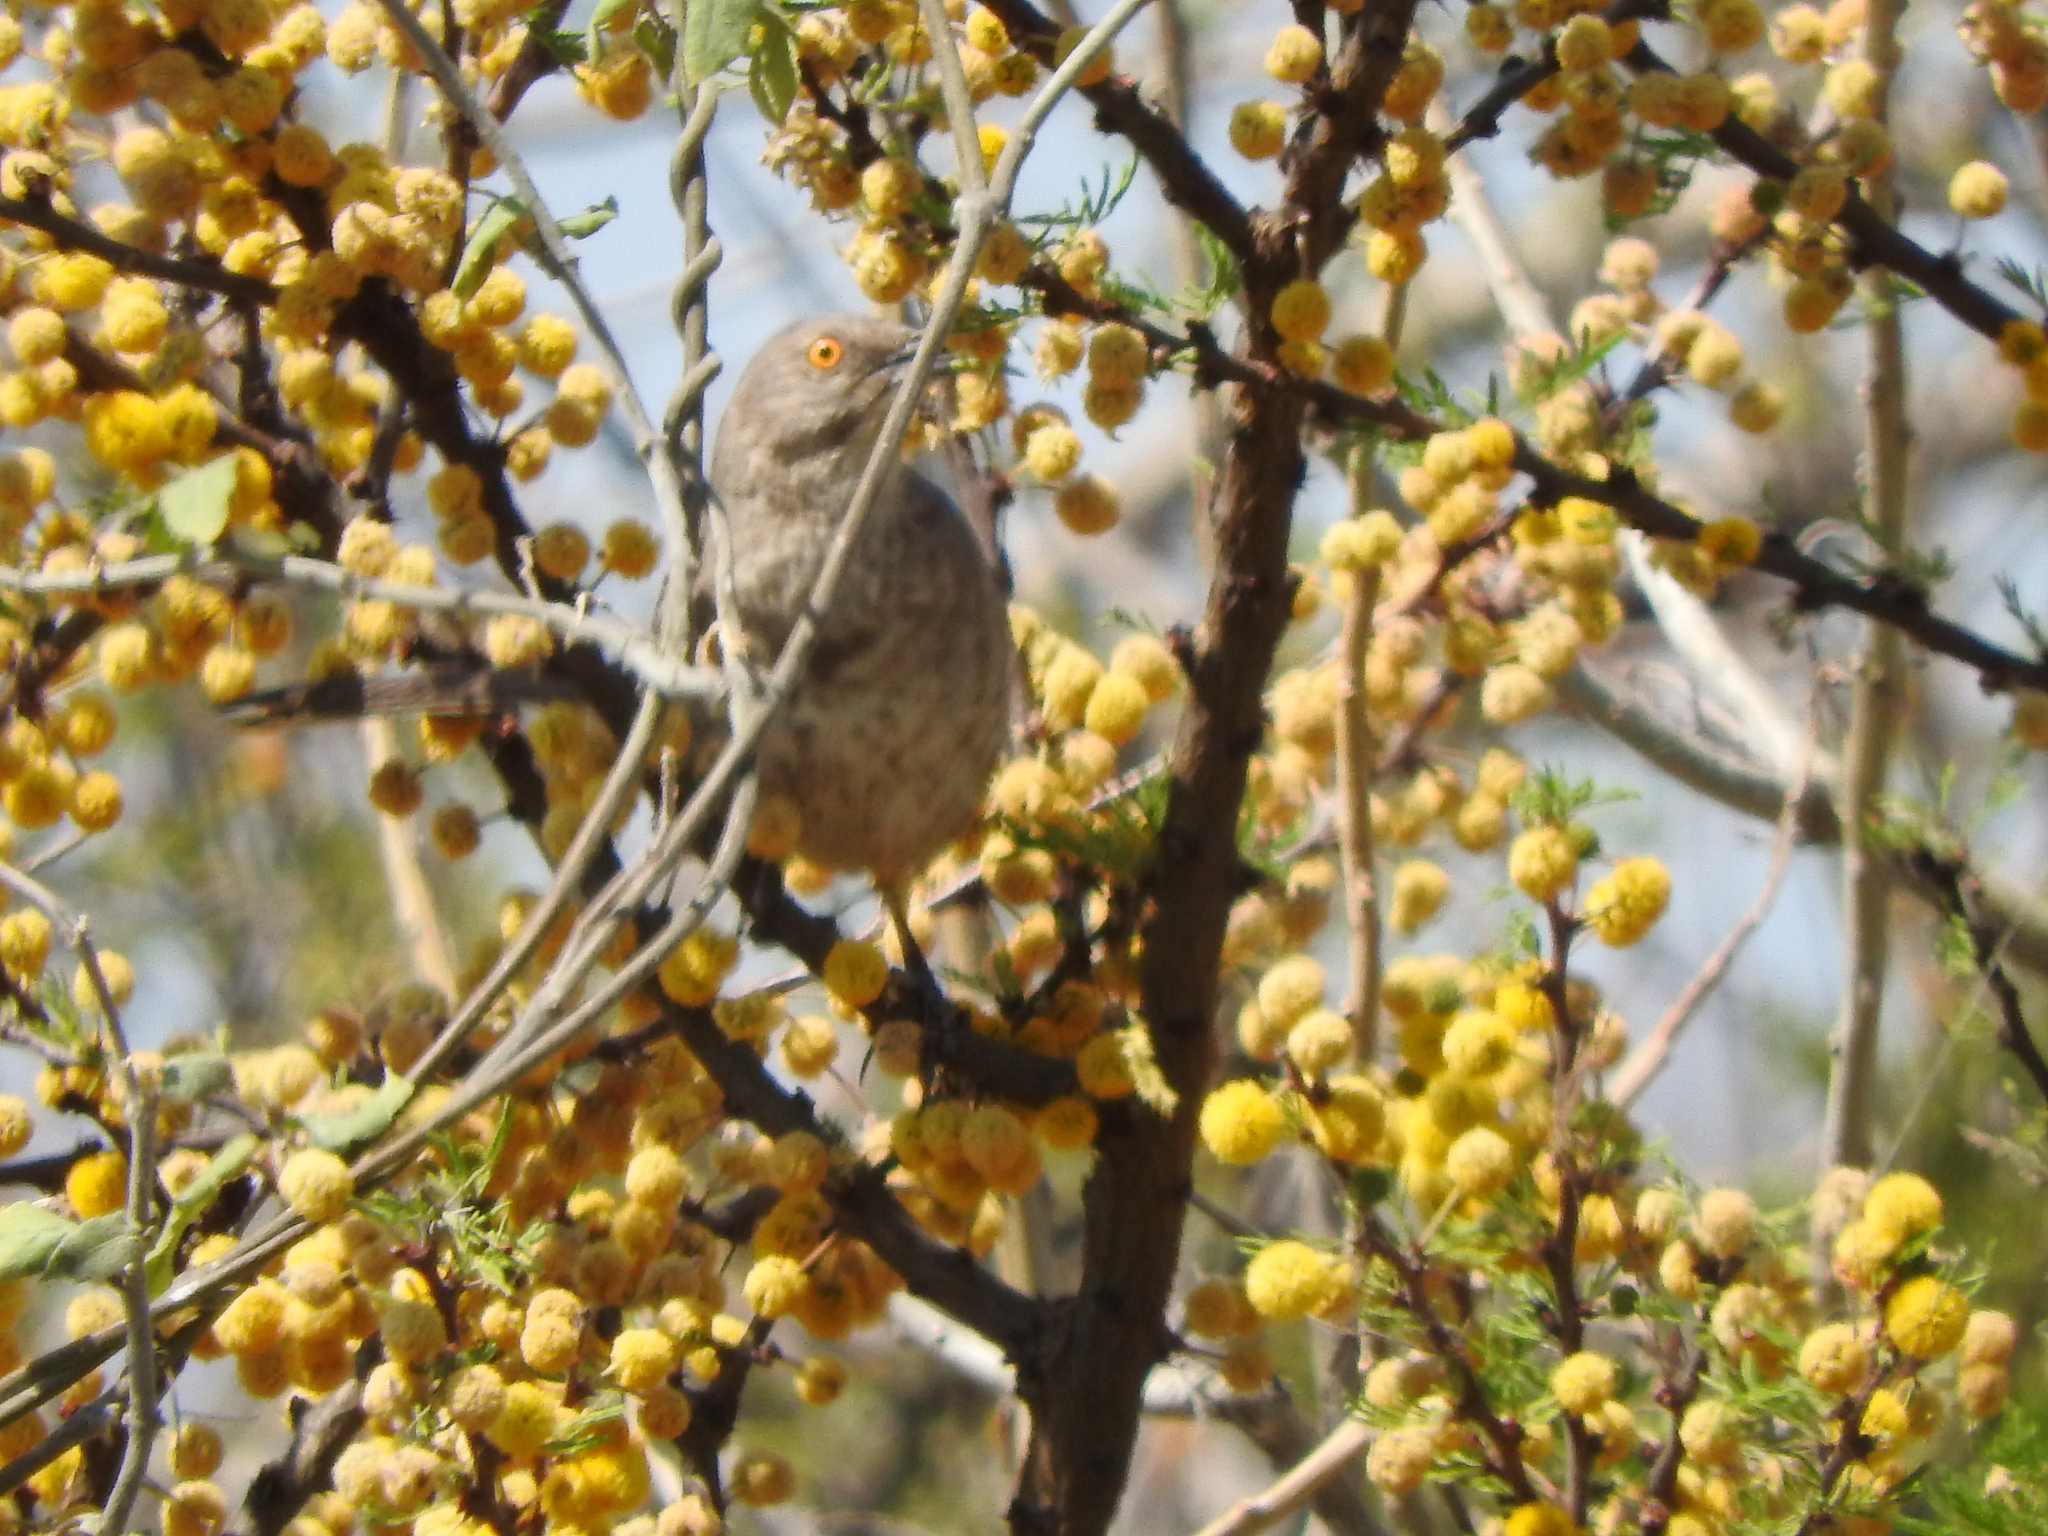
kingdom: Animalia
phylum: Chordata
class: Aves
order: Passeriformes
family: Mimidae
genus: Toxostoma
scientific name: Toxostoma curvirostre
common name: Curve-billed thrasher
